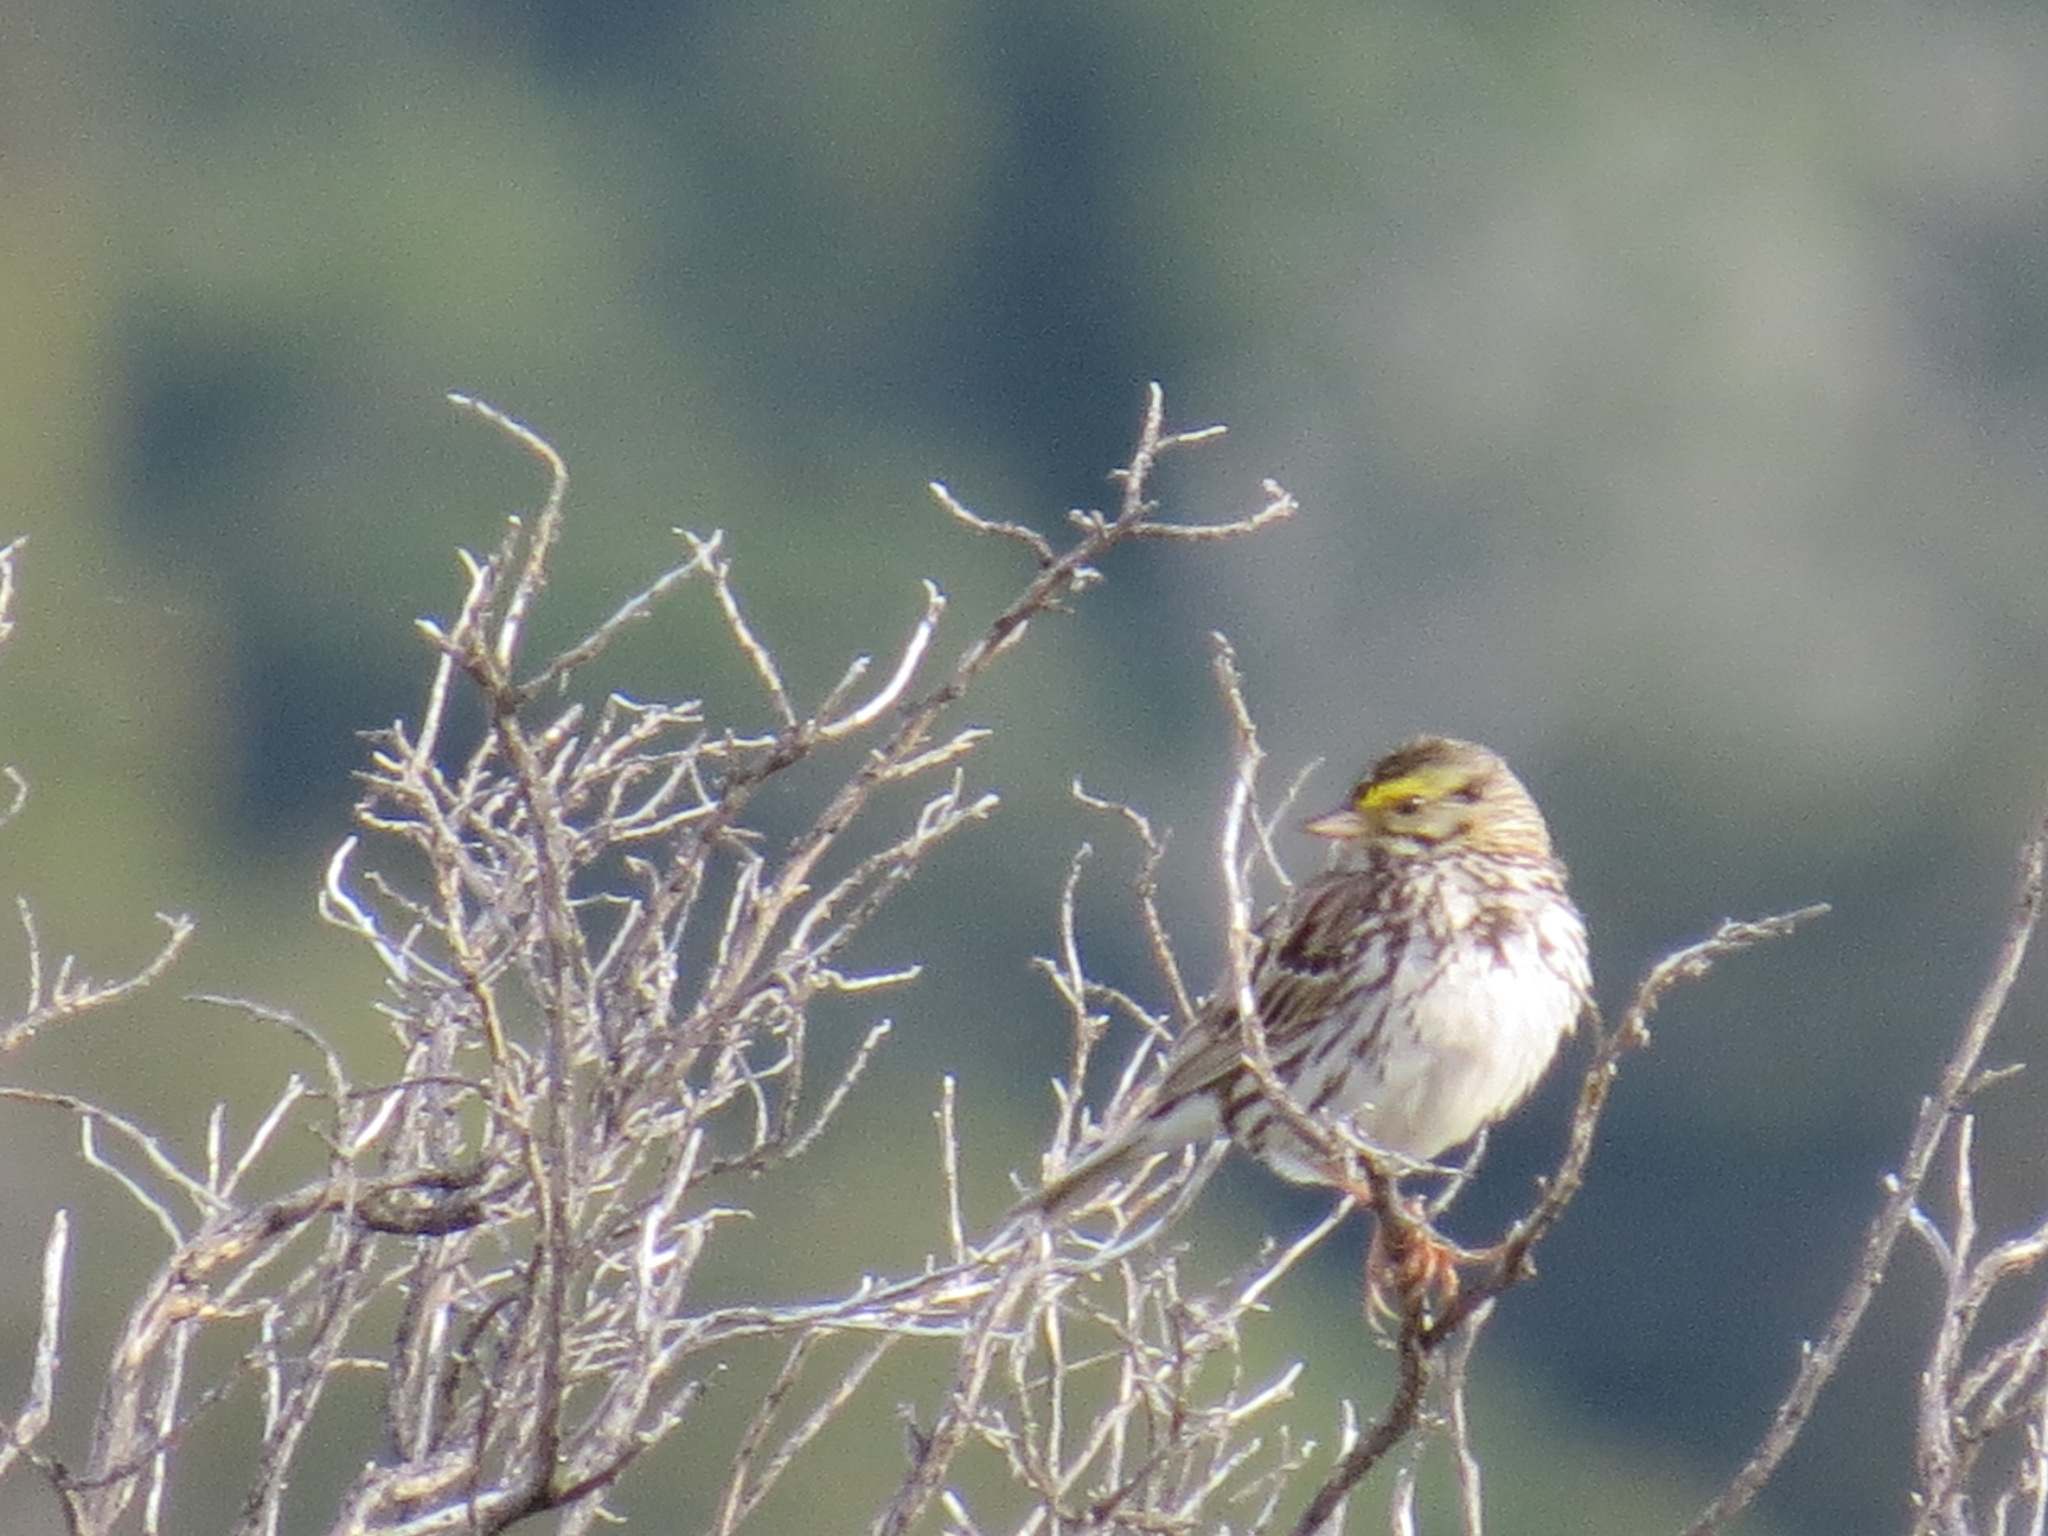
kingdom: Animalia
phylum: Chordata
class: Aves
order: Passeriformes
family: Passerellidae
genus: Passerculus
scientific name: Passerculus sandwichensis
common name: Savannah sparrow
